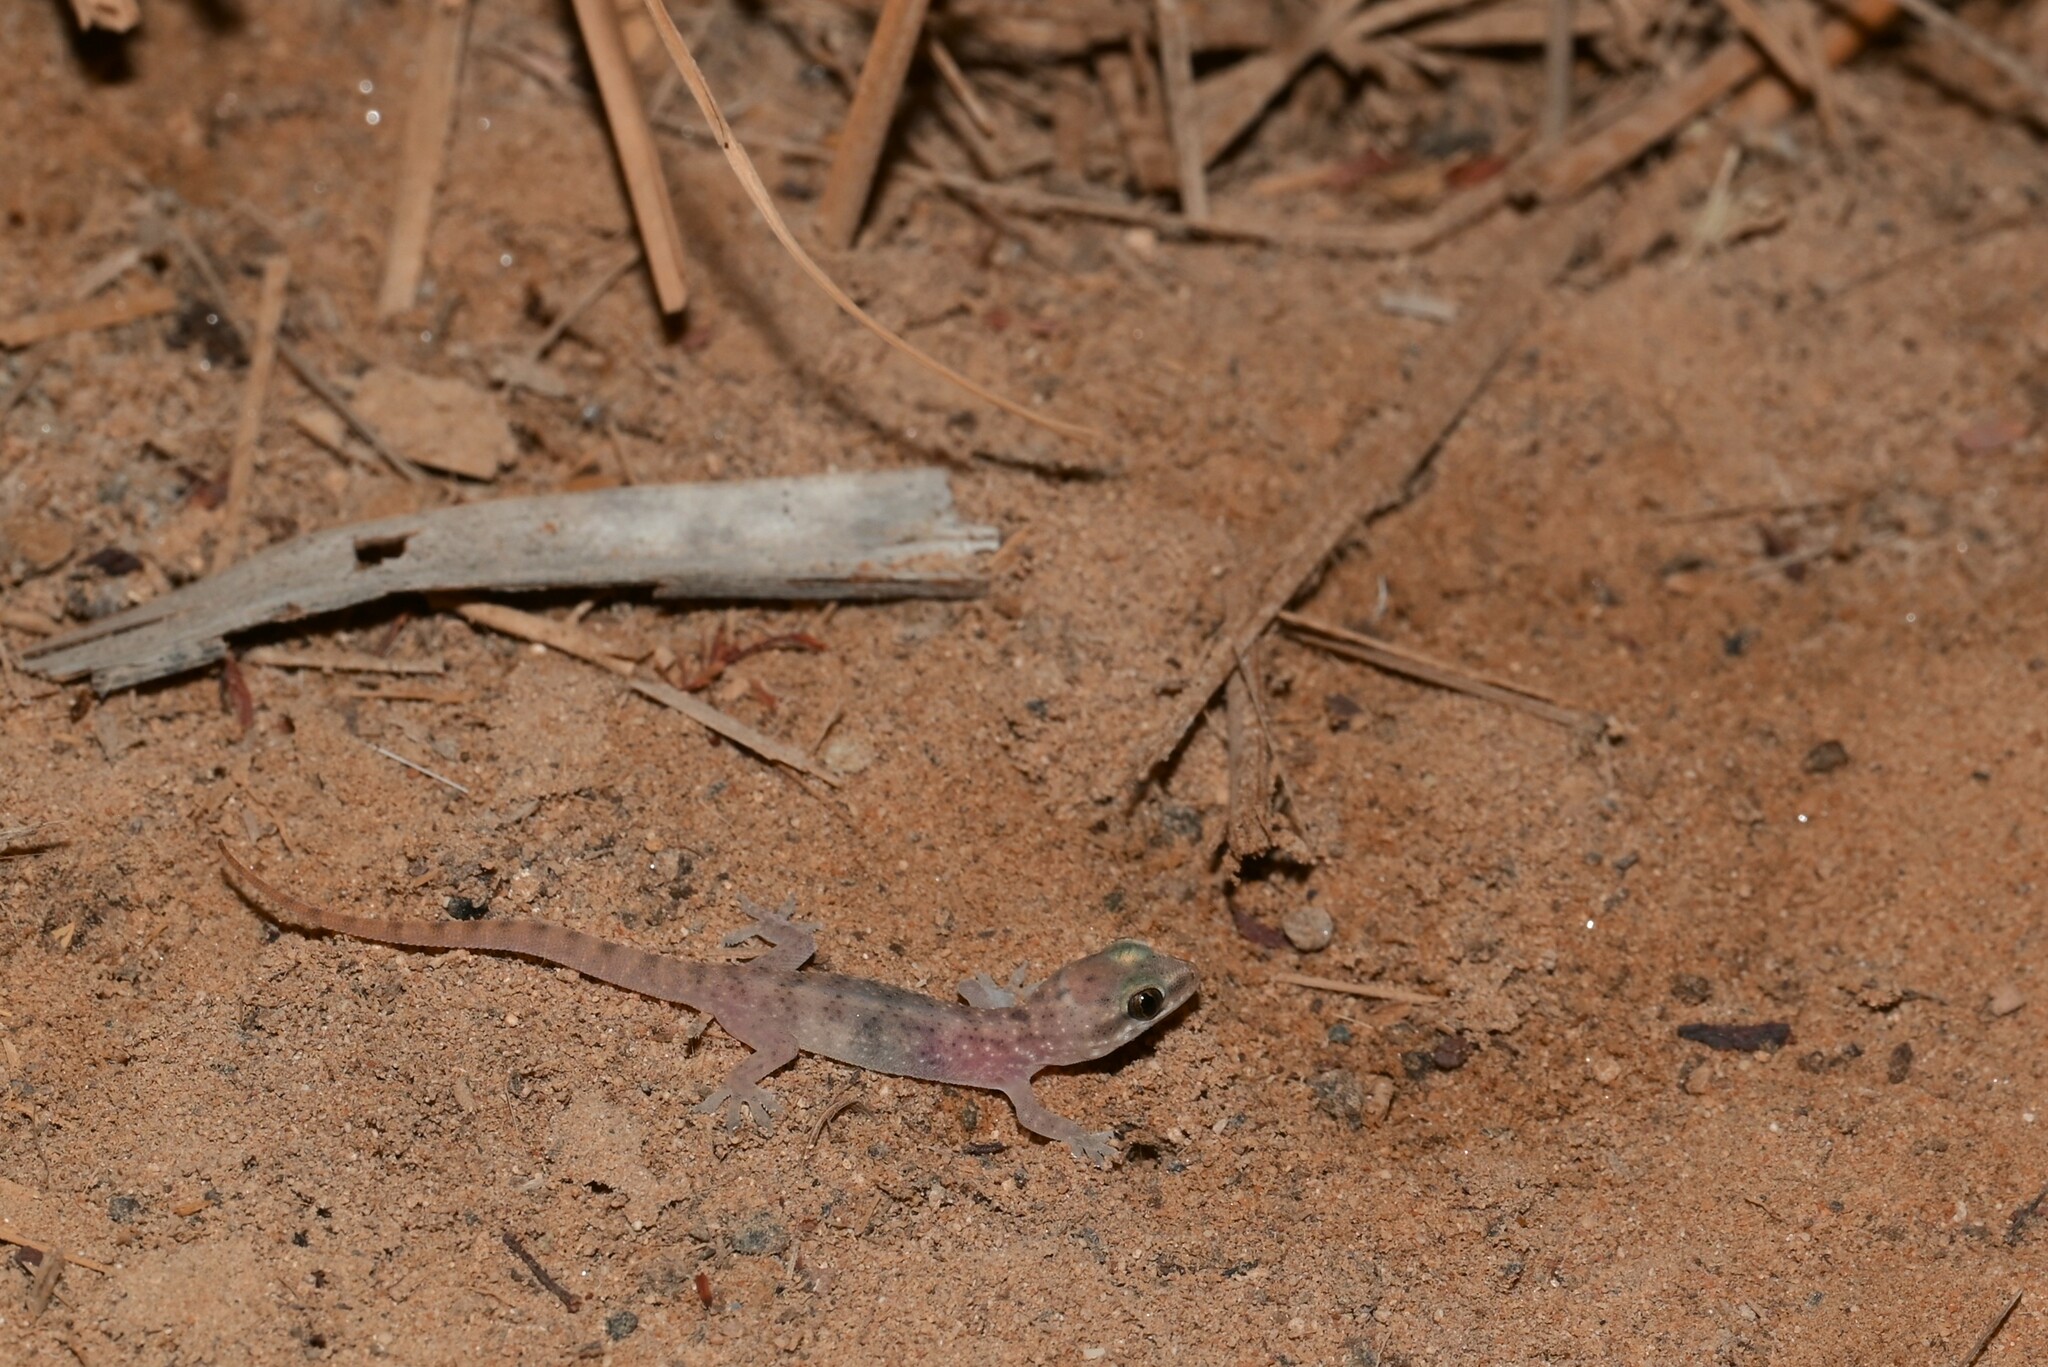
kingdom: Animalia
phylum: Chordata
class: Squamata
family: Gekkonidae
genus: Hemidactylus
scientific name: Hemidactylus robustus
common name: Heyden’s gecko
